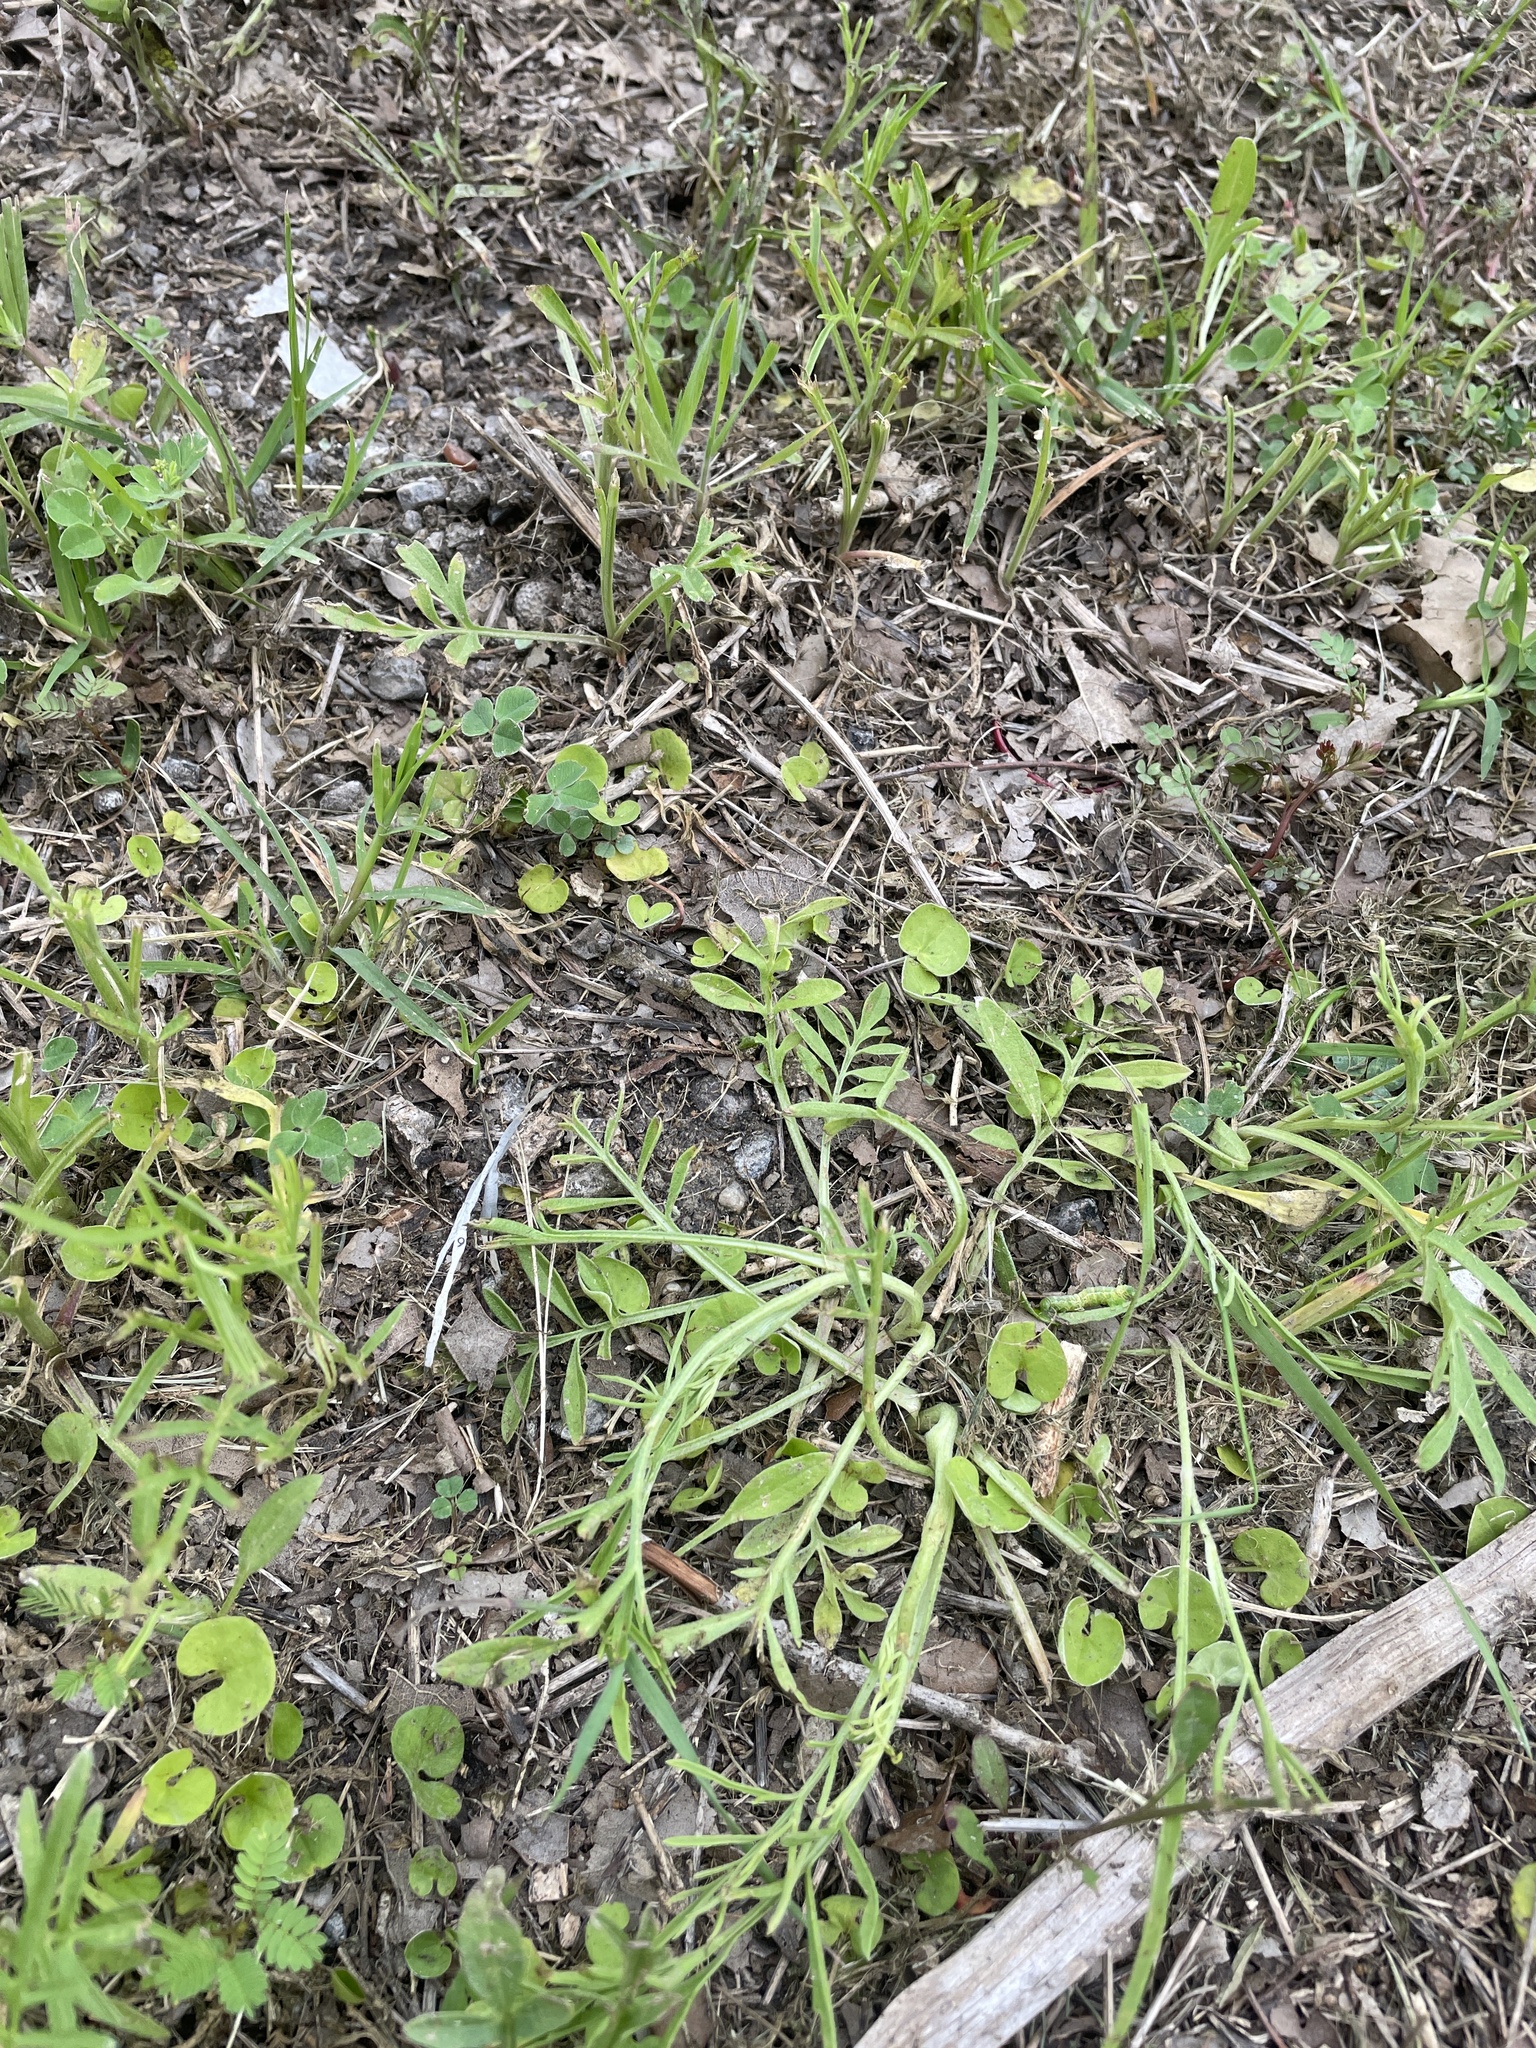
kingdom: Plantae
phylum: Tracheophyta
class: Magnoliopsida
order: Solanales
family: Convolvulaceae
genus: Dichondra
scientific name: Dichondra carolinensis
